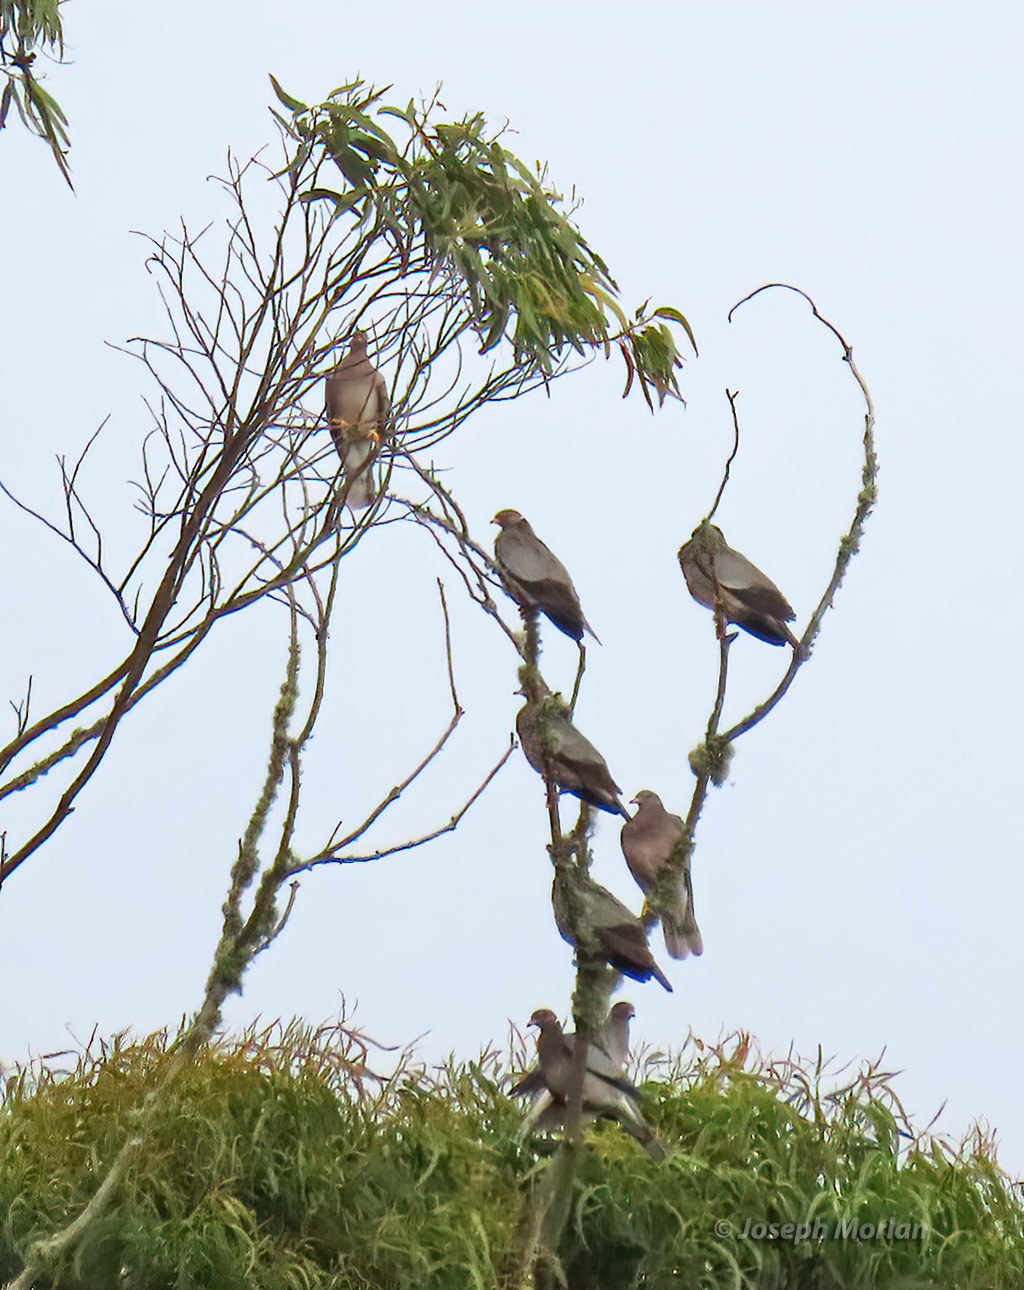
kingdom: Animalia
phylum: Chordata
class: Aves
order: Columbiformes
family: Columbidae
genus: Patagioenas
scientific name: Patagioenas fasciata
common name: Band-tailed pigeon
